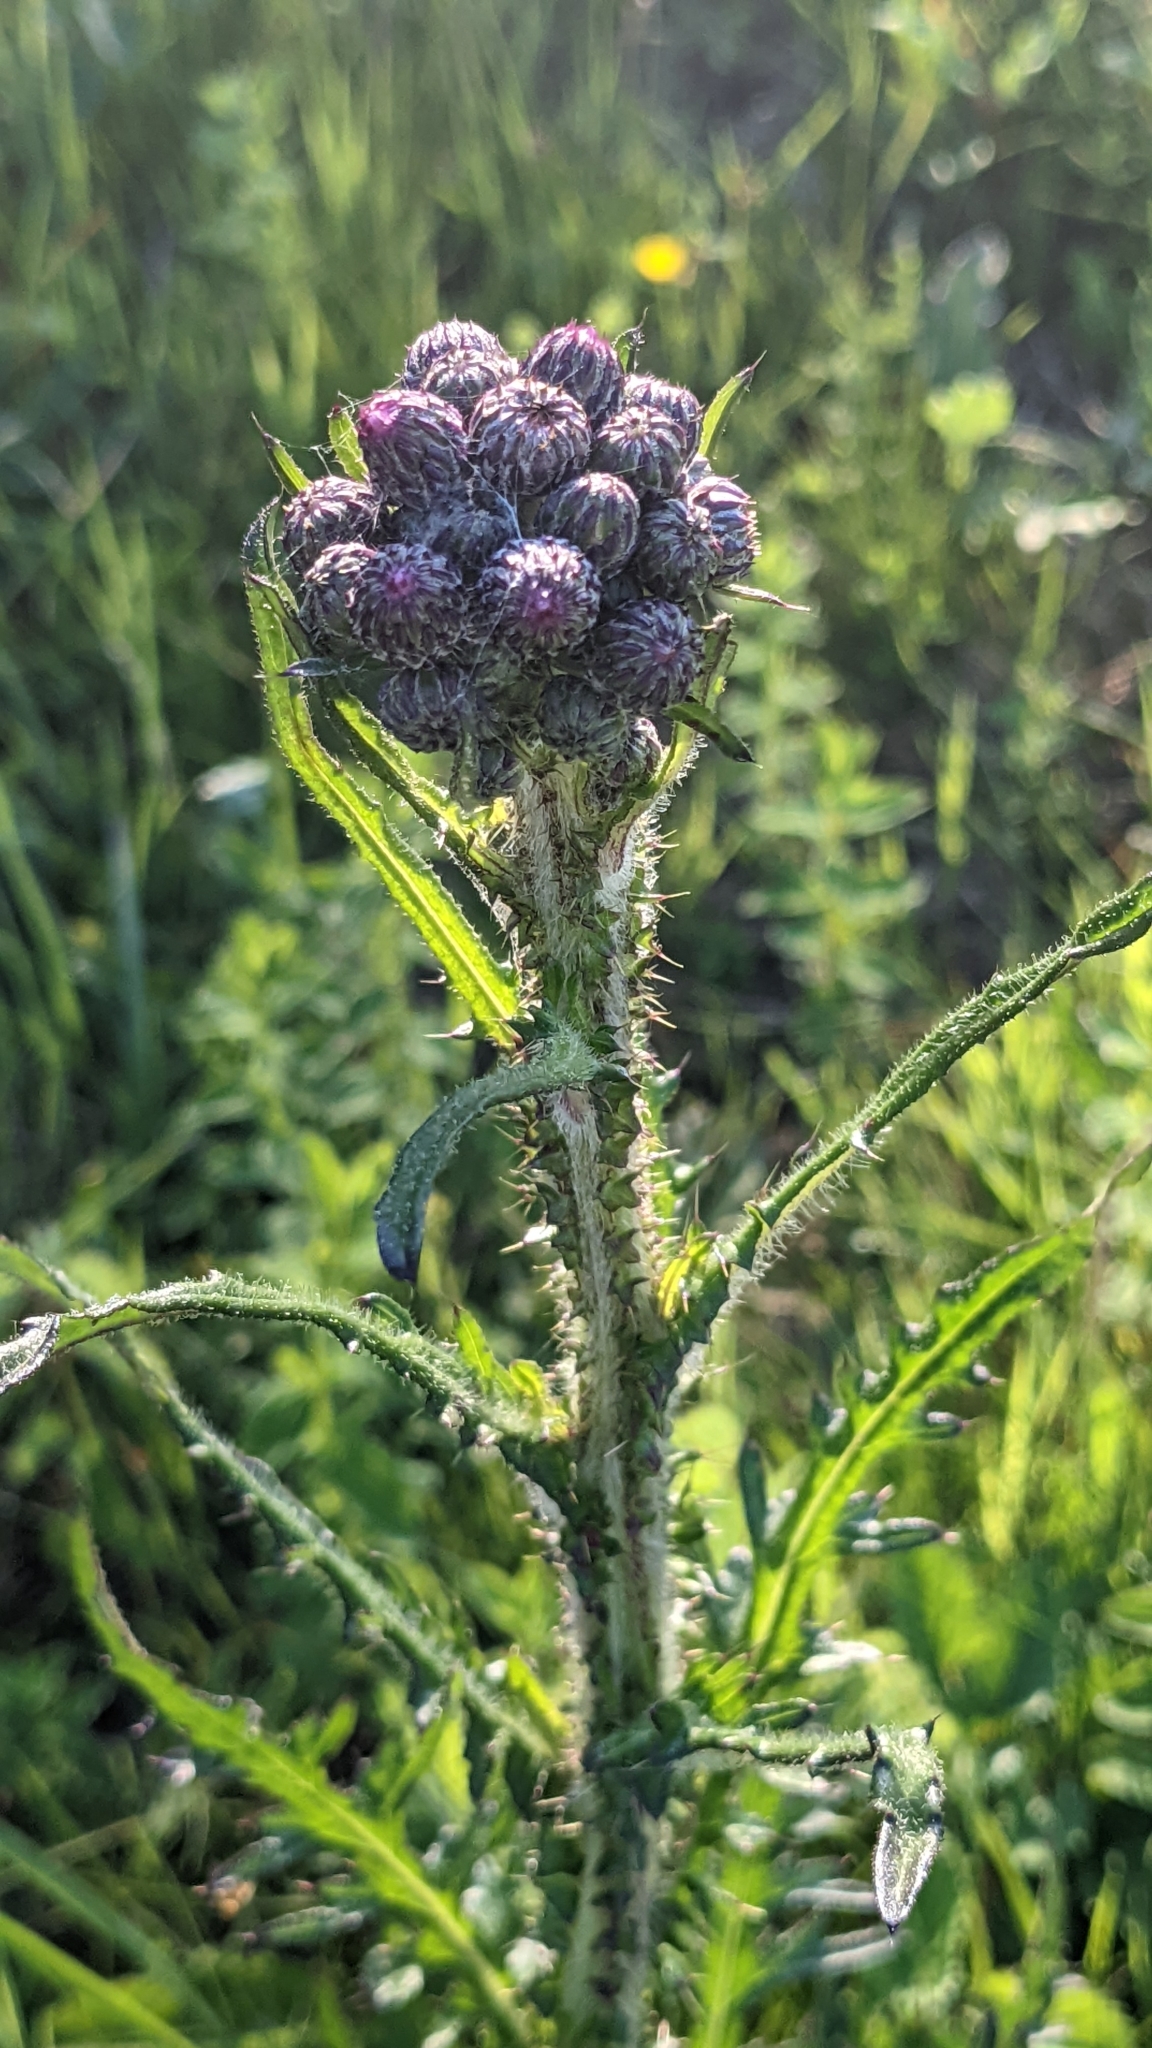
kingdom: Plantae
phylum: Tracheophyta
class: Magnoliopsida
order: Asterales
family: Asteraceae
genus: Cirsium
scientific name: Cirsium palustre
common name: Marsh thistle
